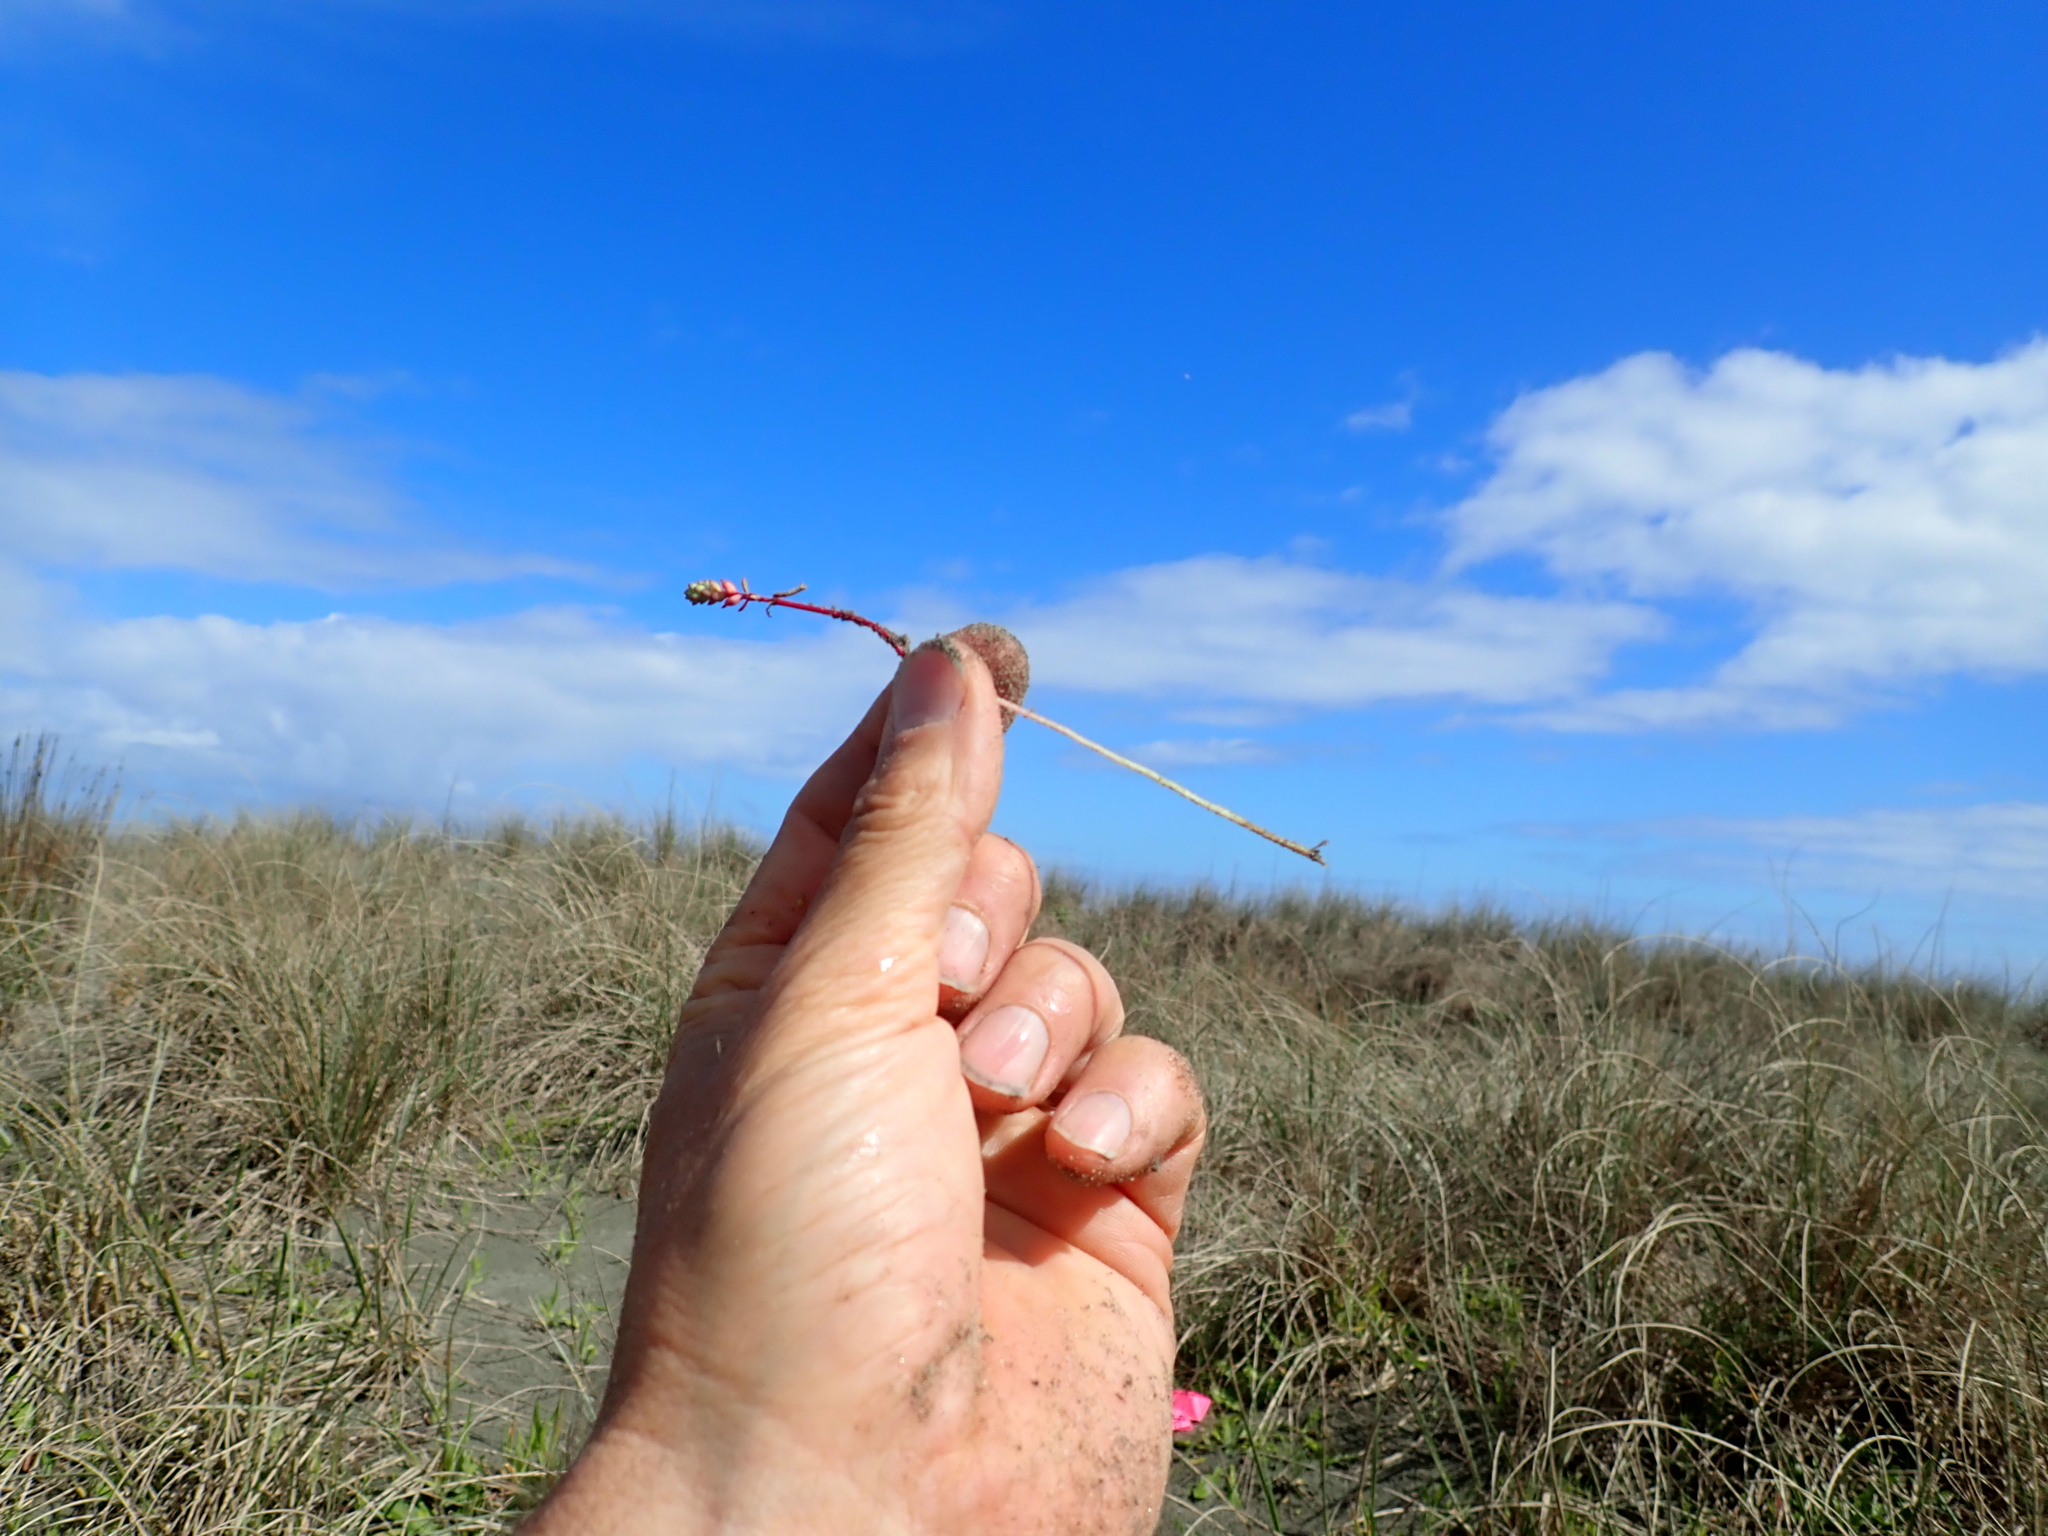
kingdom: Plantae
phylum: Tracheophyta
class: Magnoliopsida
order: Malpighiales
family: Euphorbiaceae
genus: Euphorbia
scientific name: Euphorbia paralias
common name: Sea spurge
